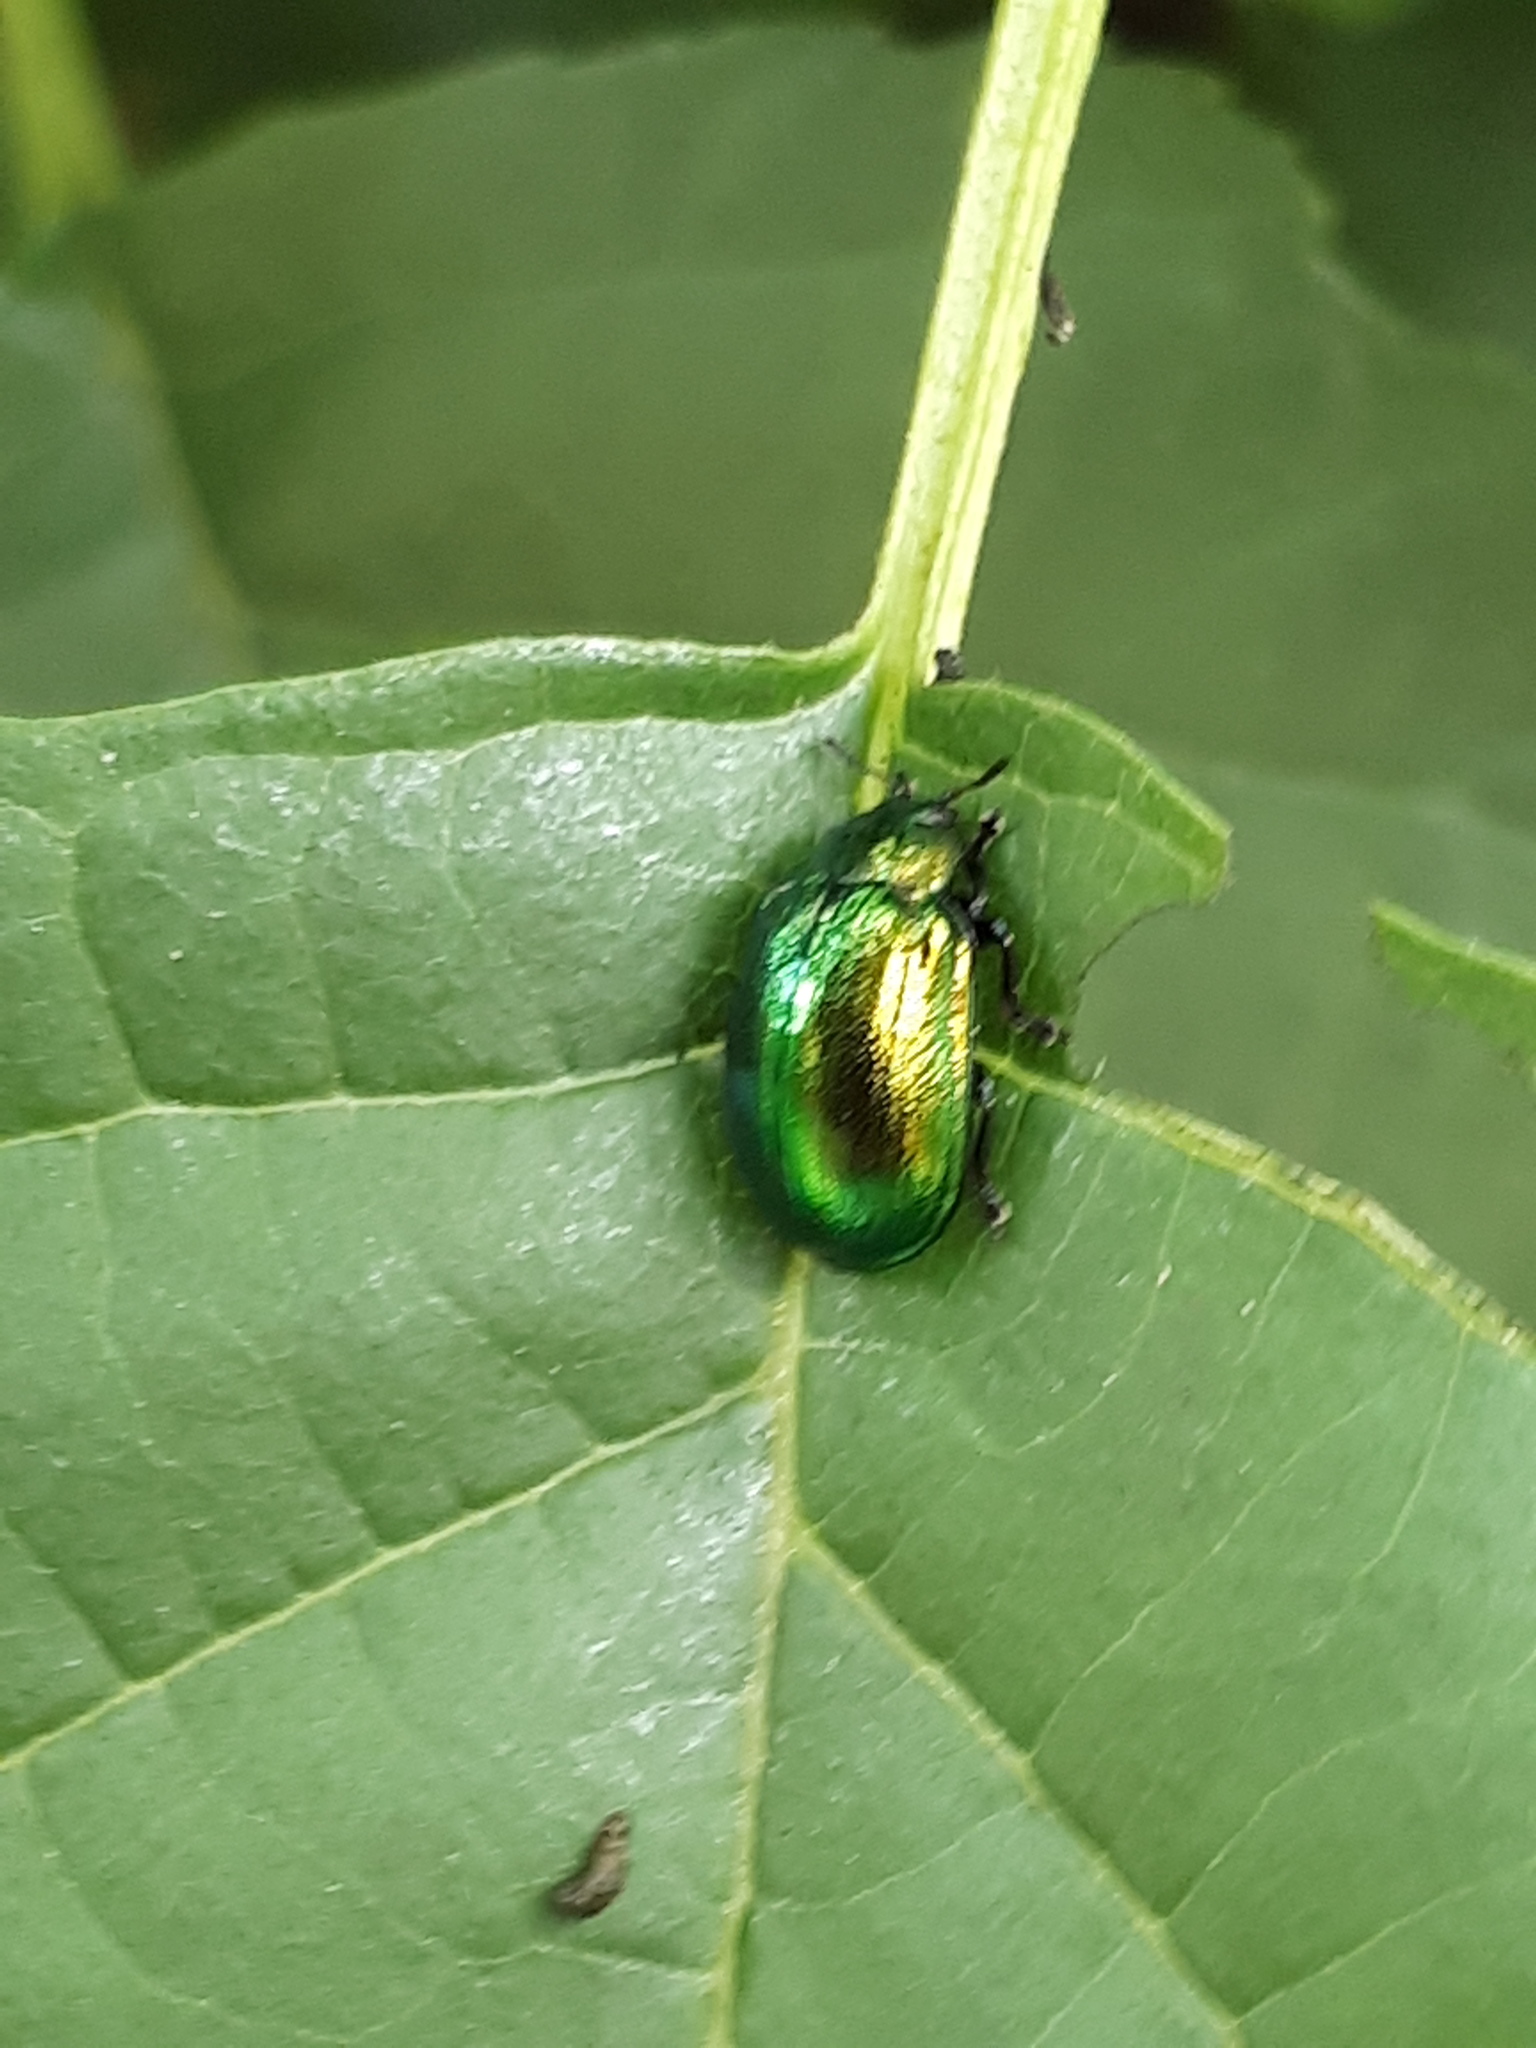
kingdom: Animalia
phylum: Arthropoda
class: Insecta
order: Coleoptera
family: Chrysomelidae
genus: Plagiosterna
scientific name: Plagiosterna aenea
